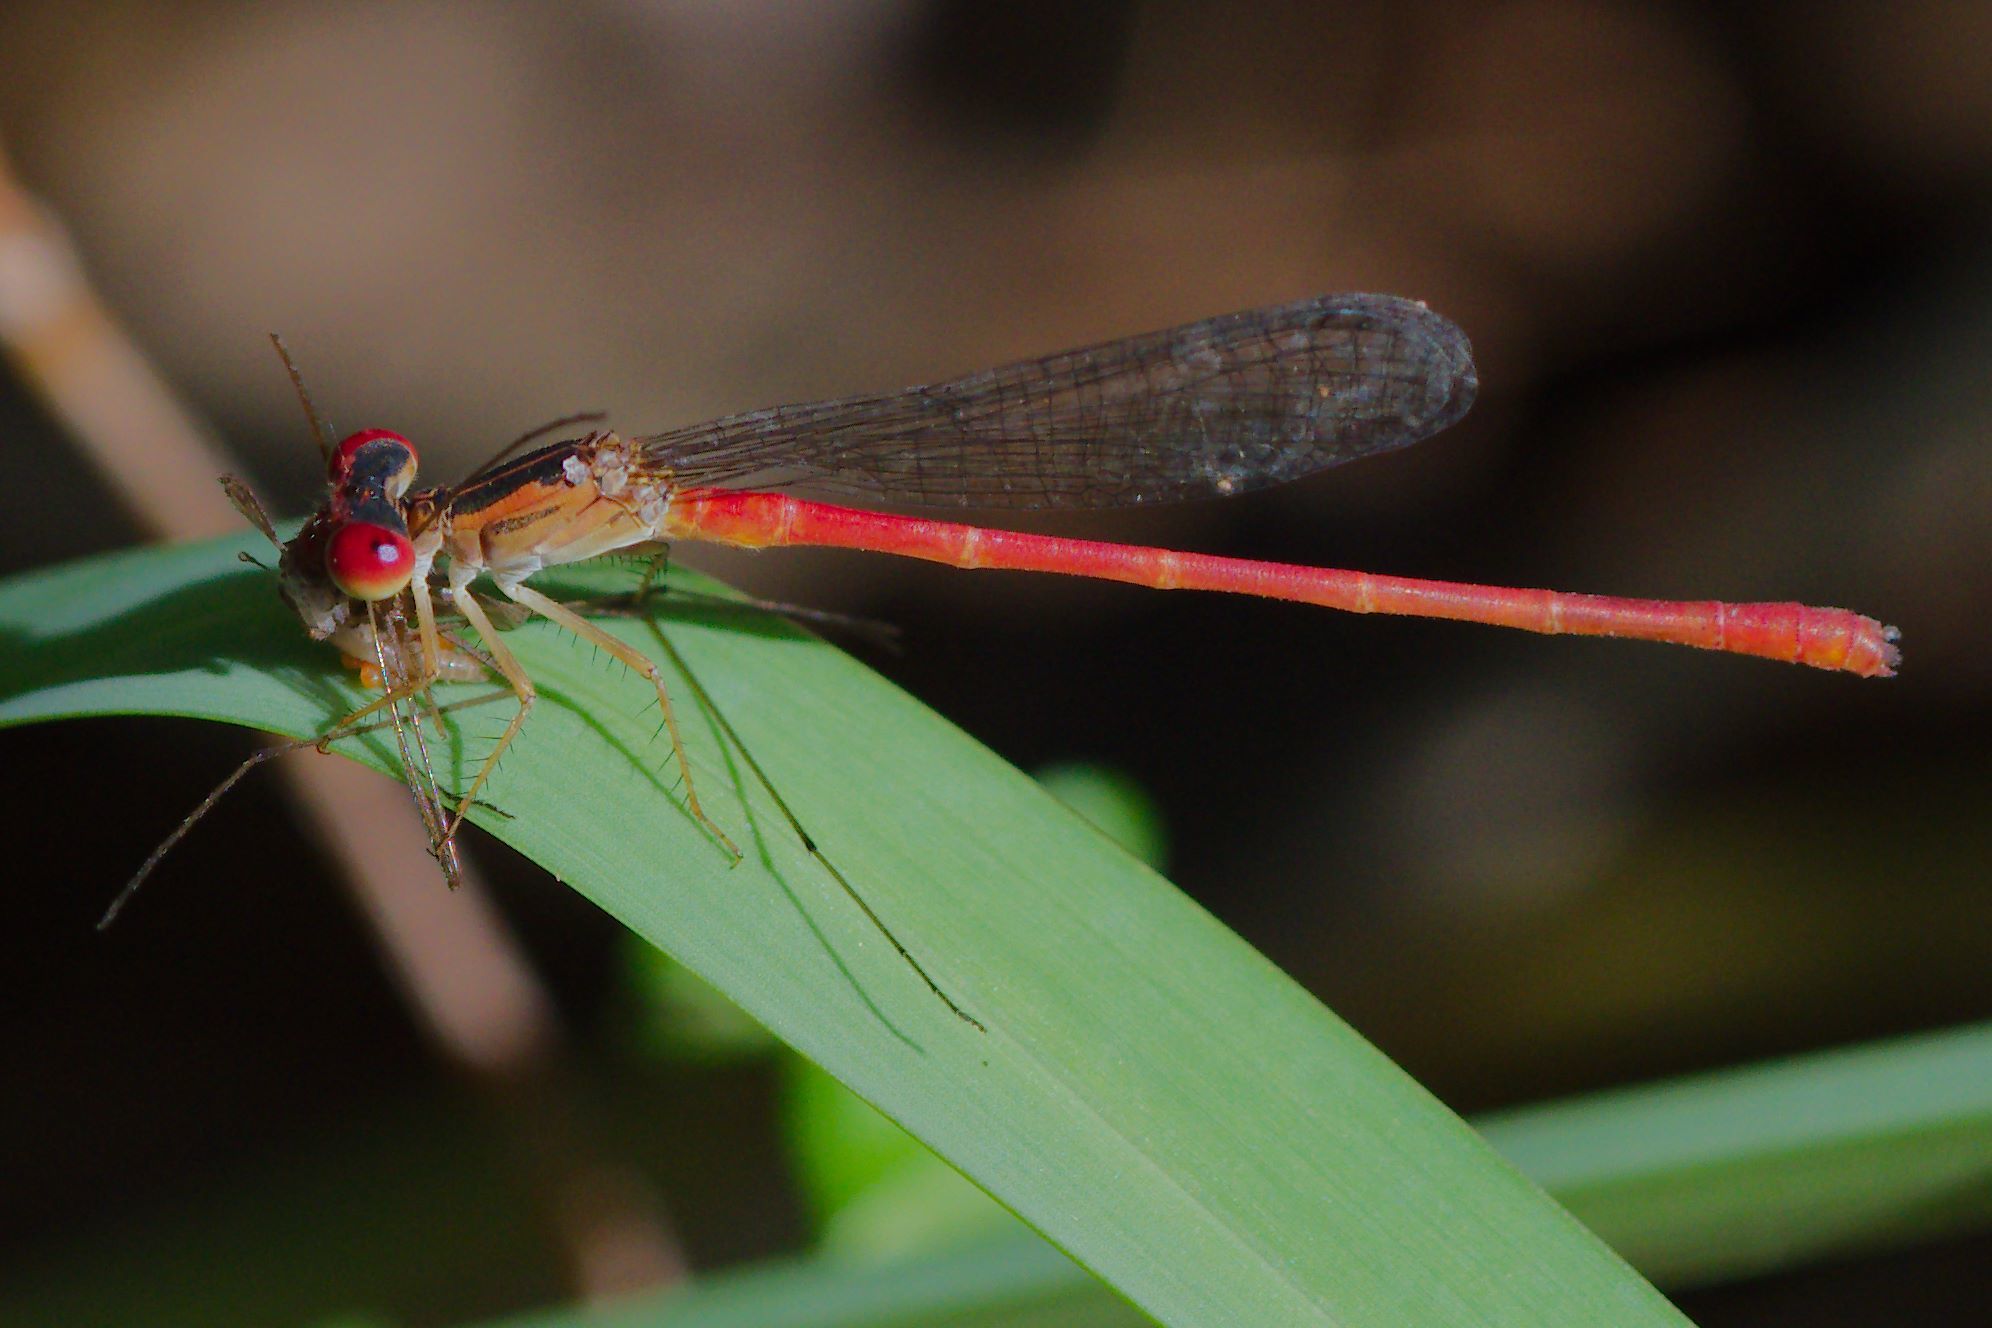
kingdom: Animalia
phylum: Arthropoda
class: Insecta
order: Odonata
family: Coenagrionidae
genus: Telebasis
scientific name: Telebasis byersi
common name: Duckweed firetail
